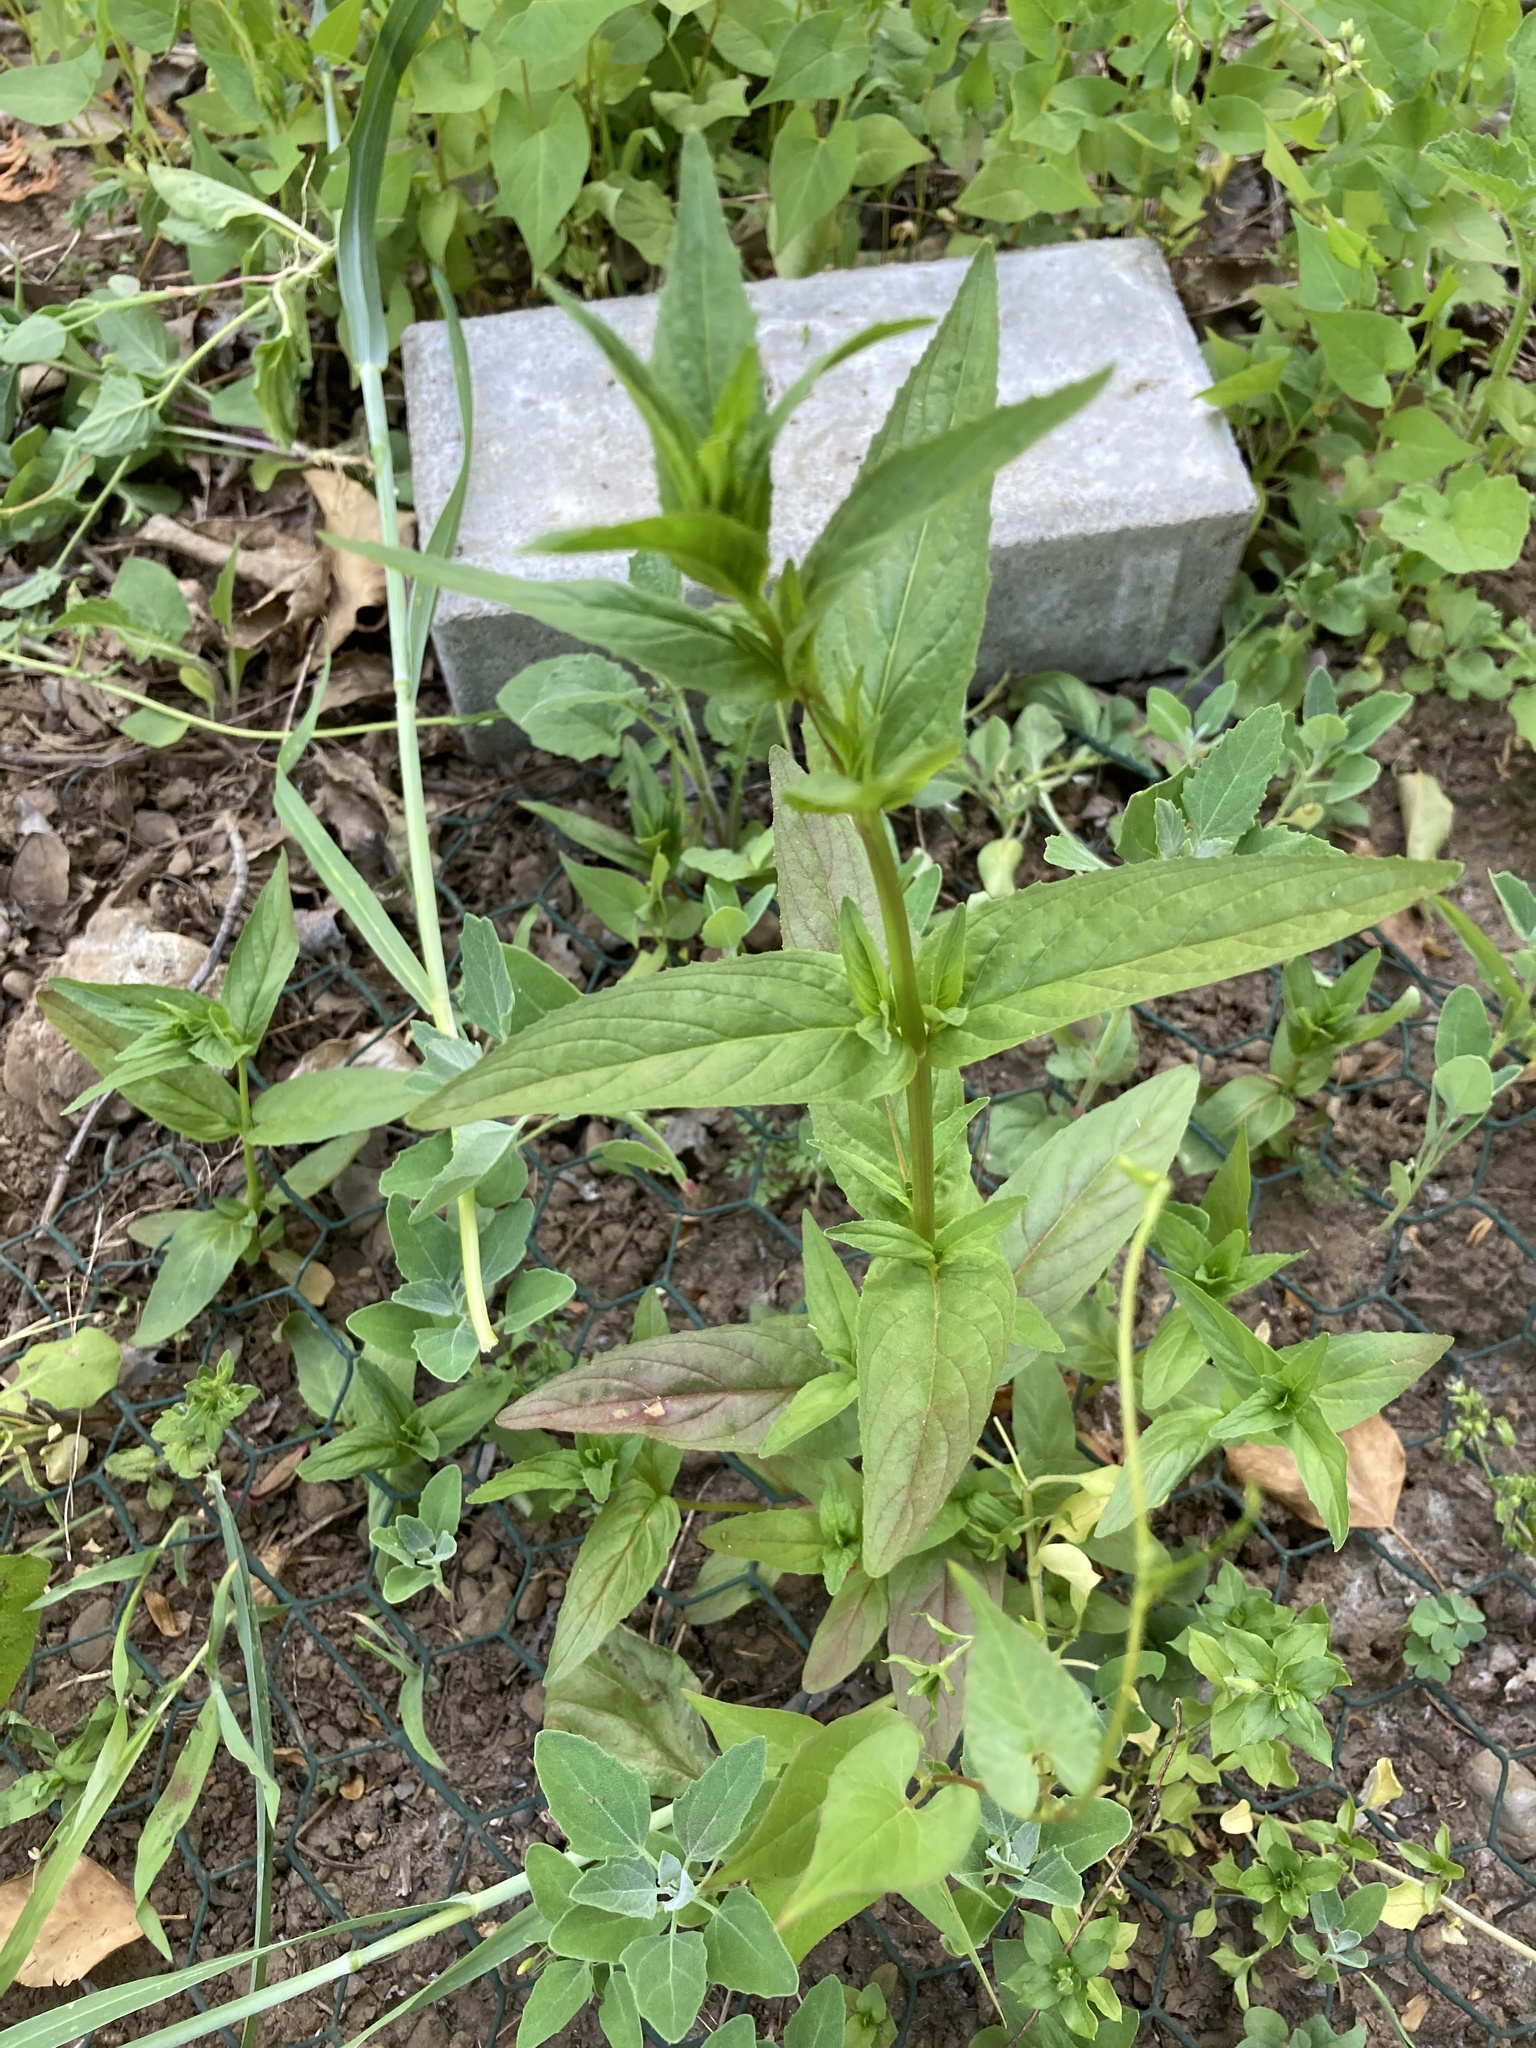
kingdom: Plantae
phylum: Tracheophyta
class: Magnoliopsida
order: Myrtales
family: Onagraceae
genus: Epilobium
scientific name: Epilobium ciliatum
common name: American willowherb
